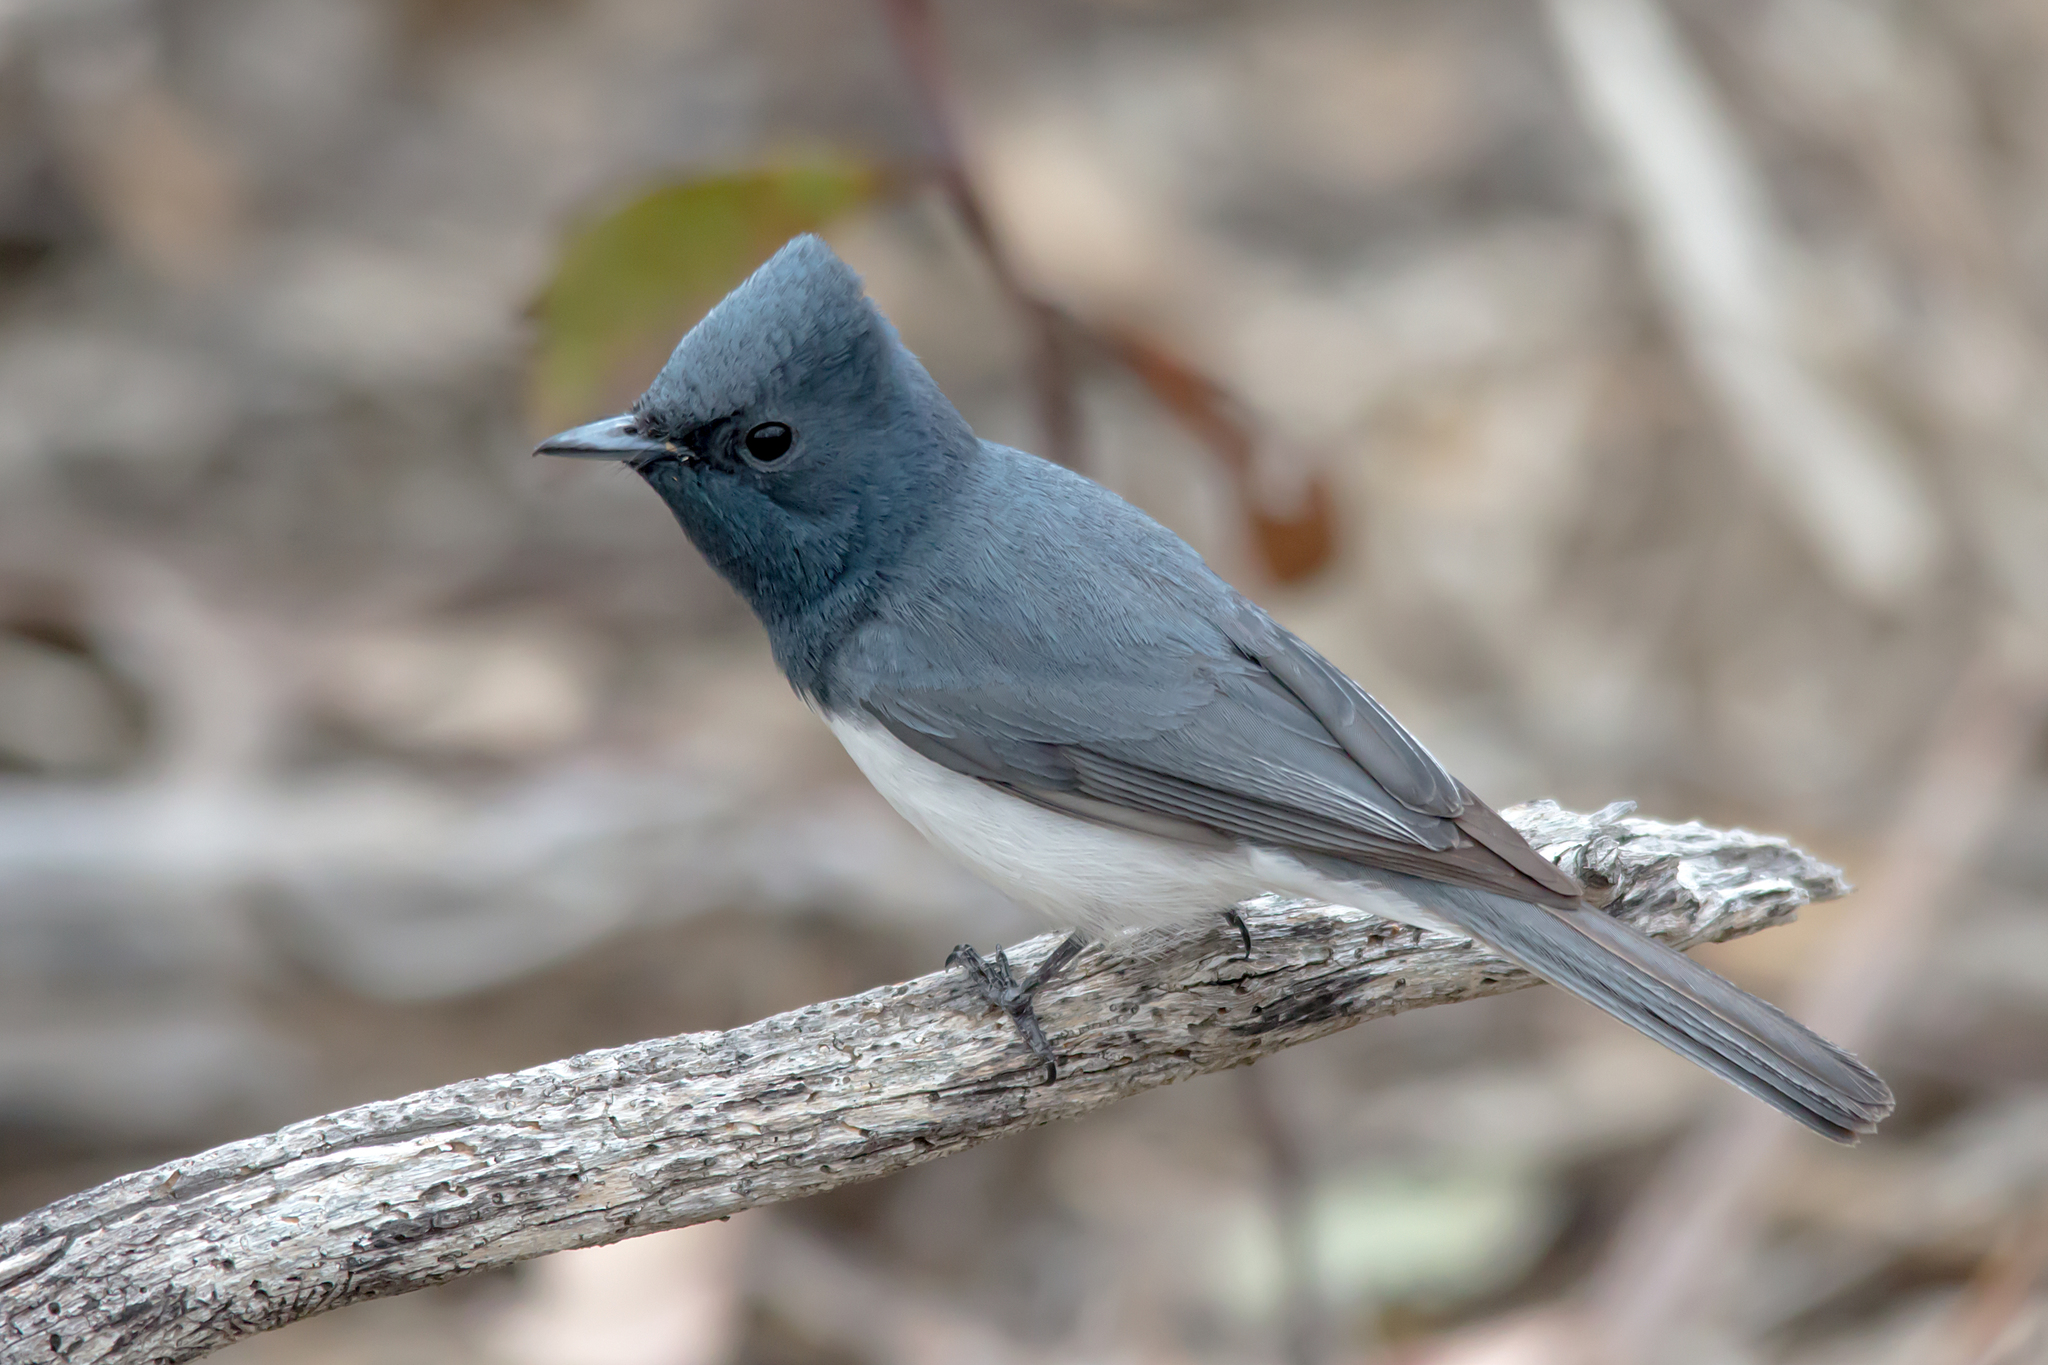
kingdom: Animalia
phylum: Chordata
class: Aves
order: Passeriformes
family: Monarchidae
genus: Myiagra
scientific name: Myiagra rubecula
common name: Leaden flycatcher
